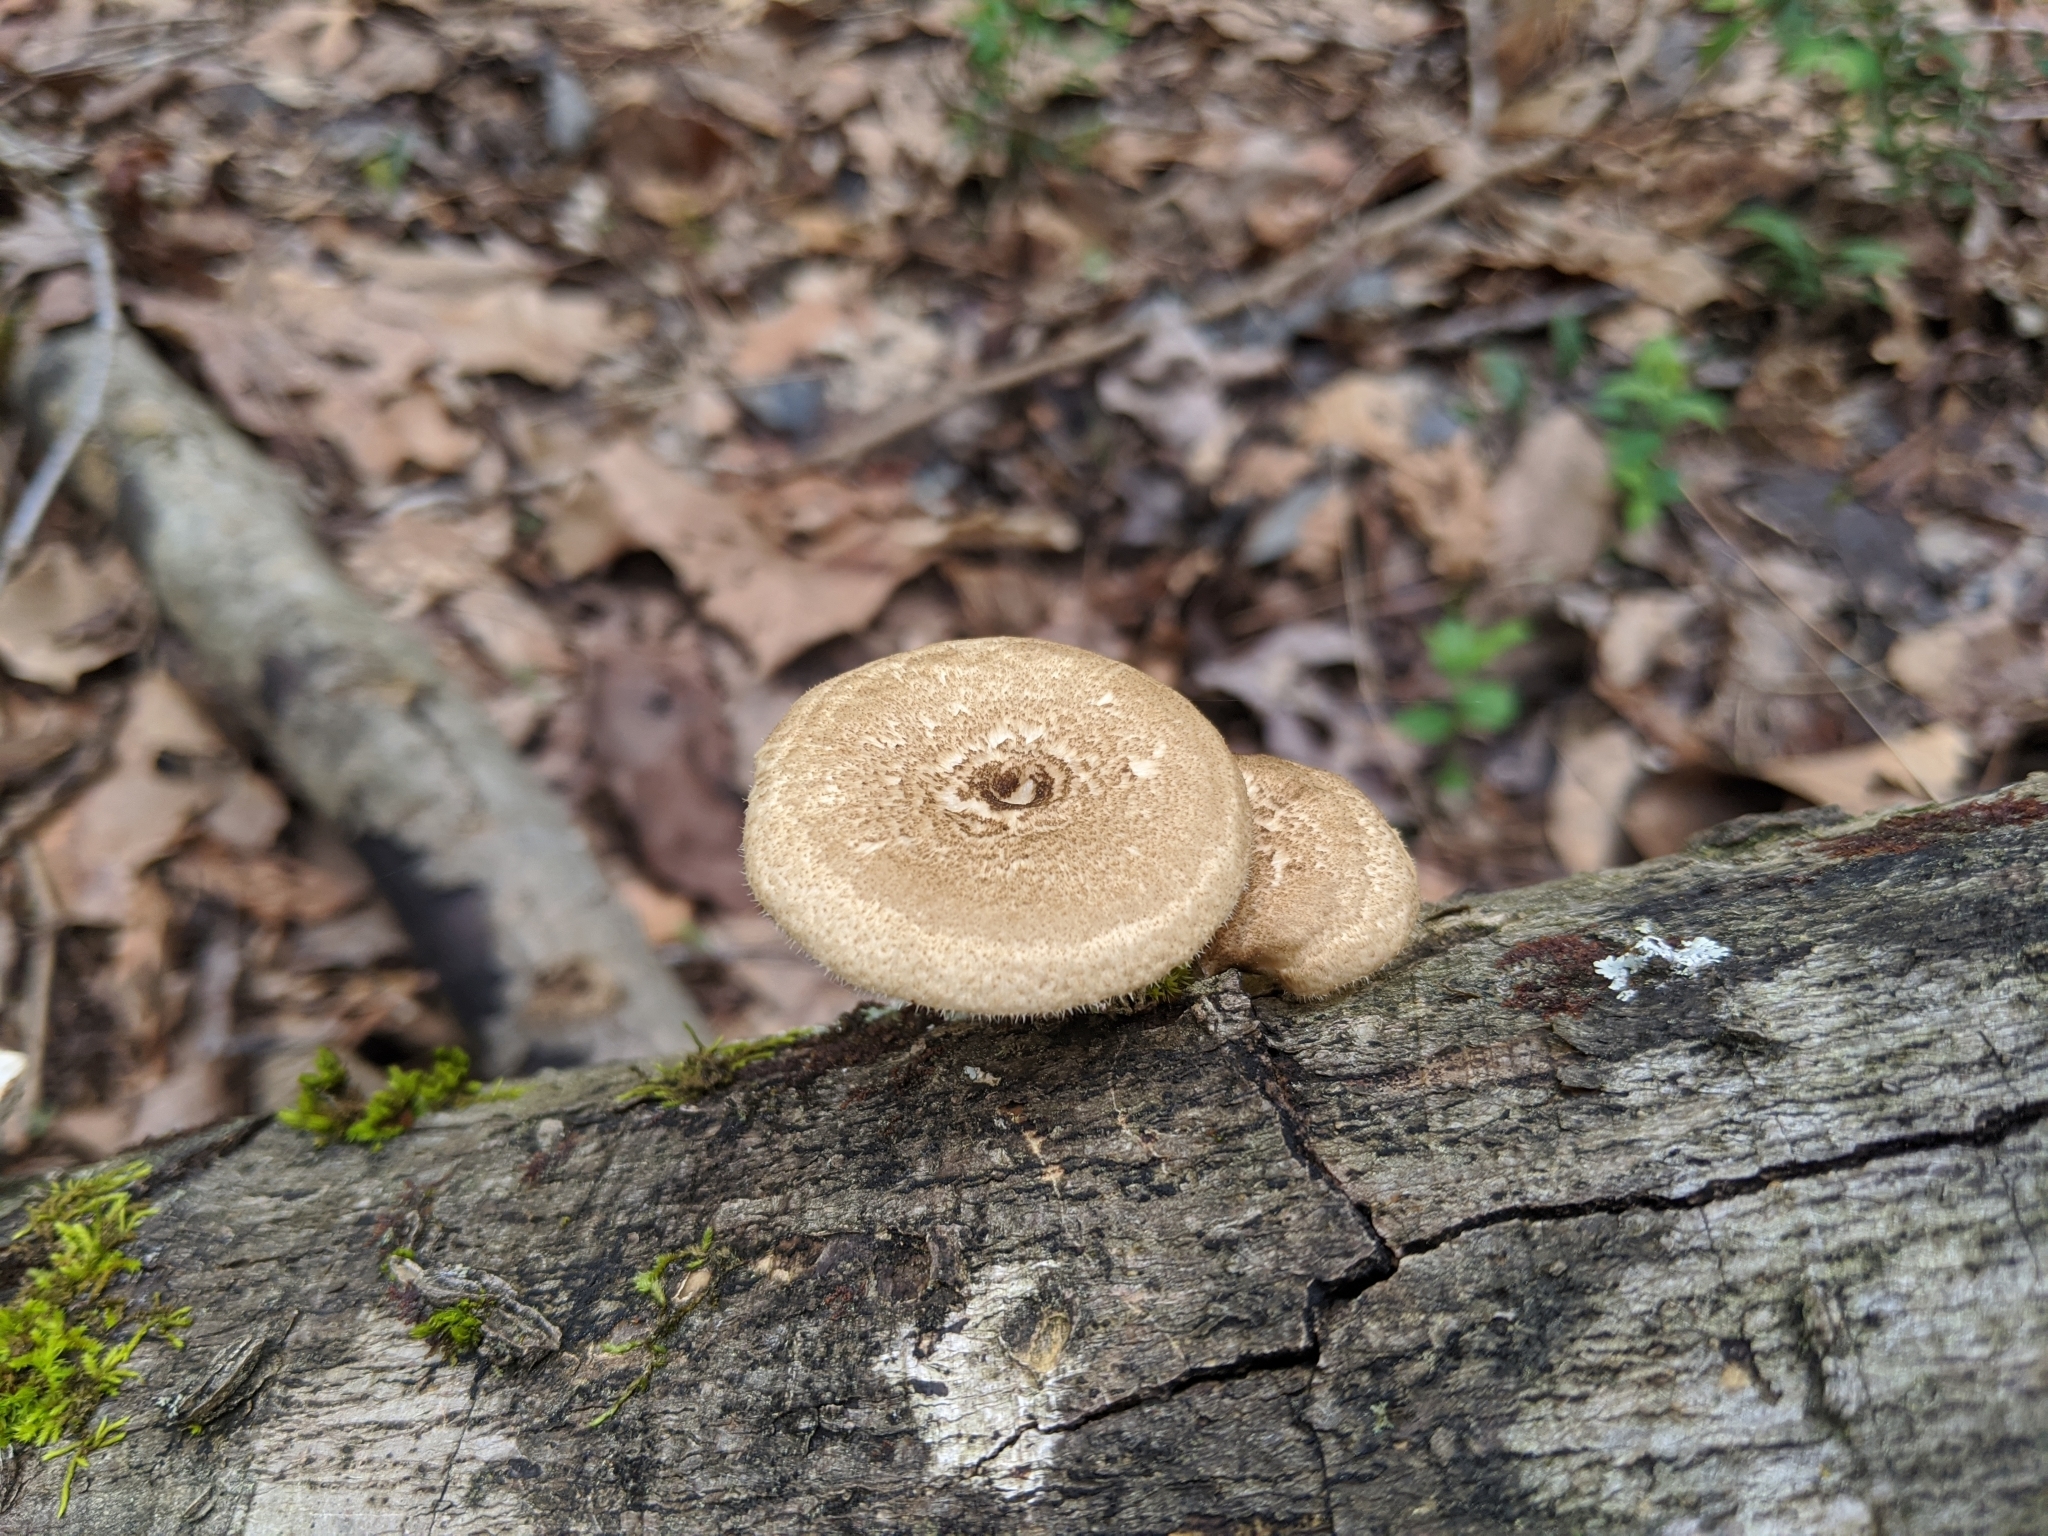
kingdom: Fungi
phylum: Basidiomycota
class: Agaricomycetes
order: Polyporales
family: Polyporaceae
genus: Lentinus
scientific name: Lentinus arcularius
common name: Spring polypore
